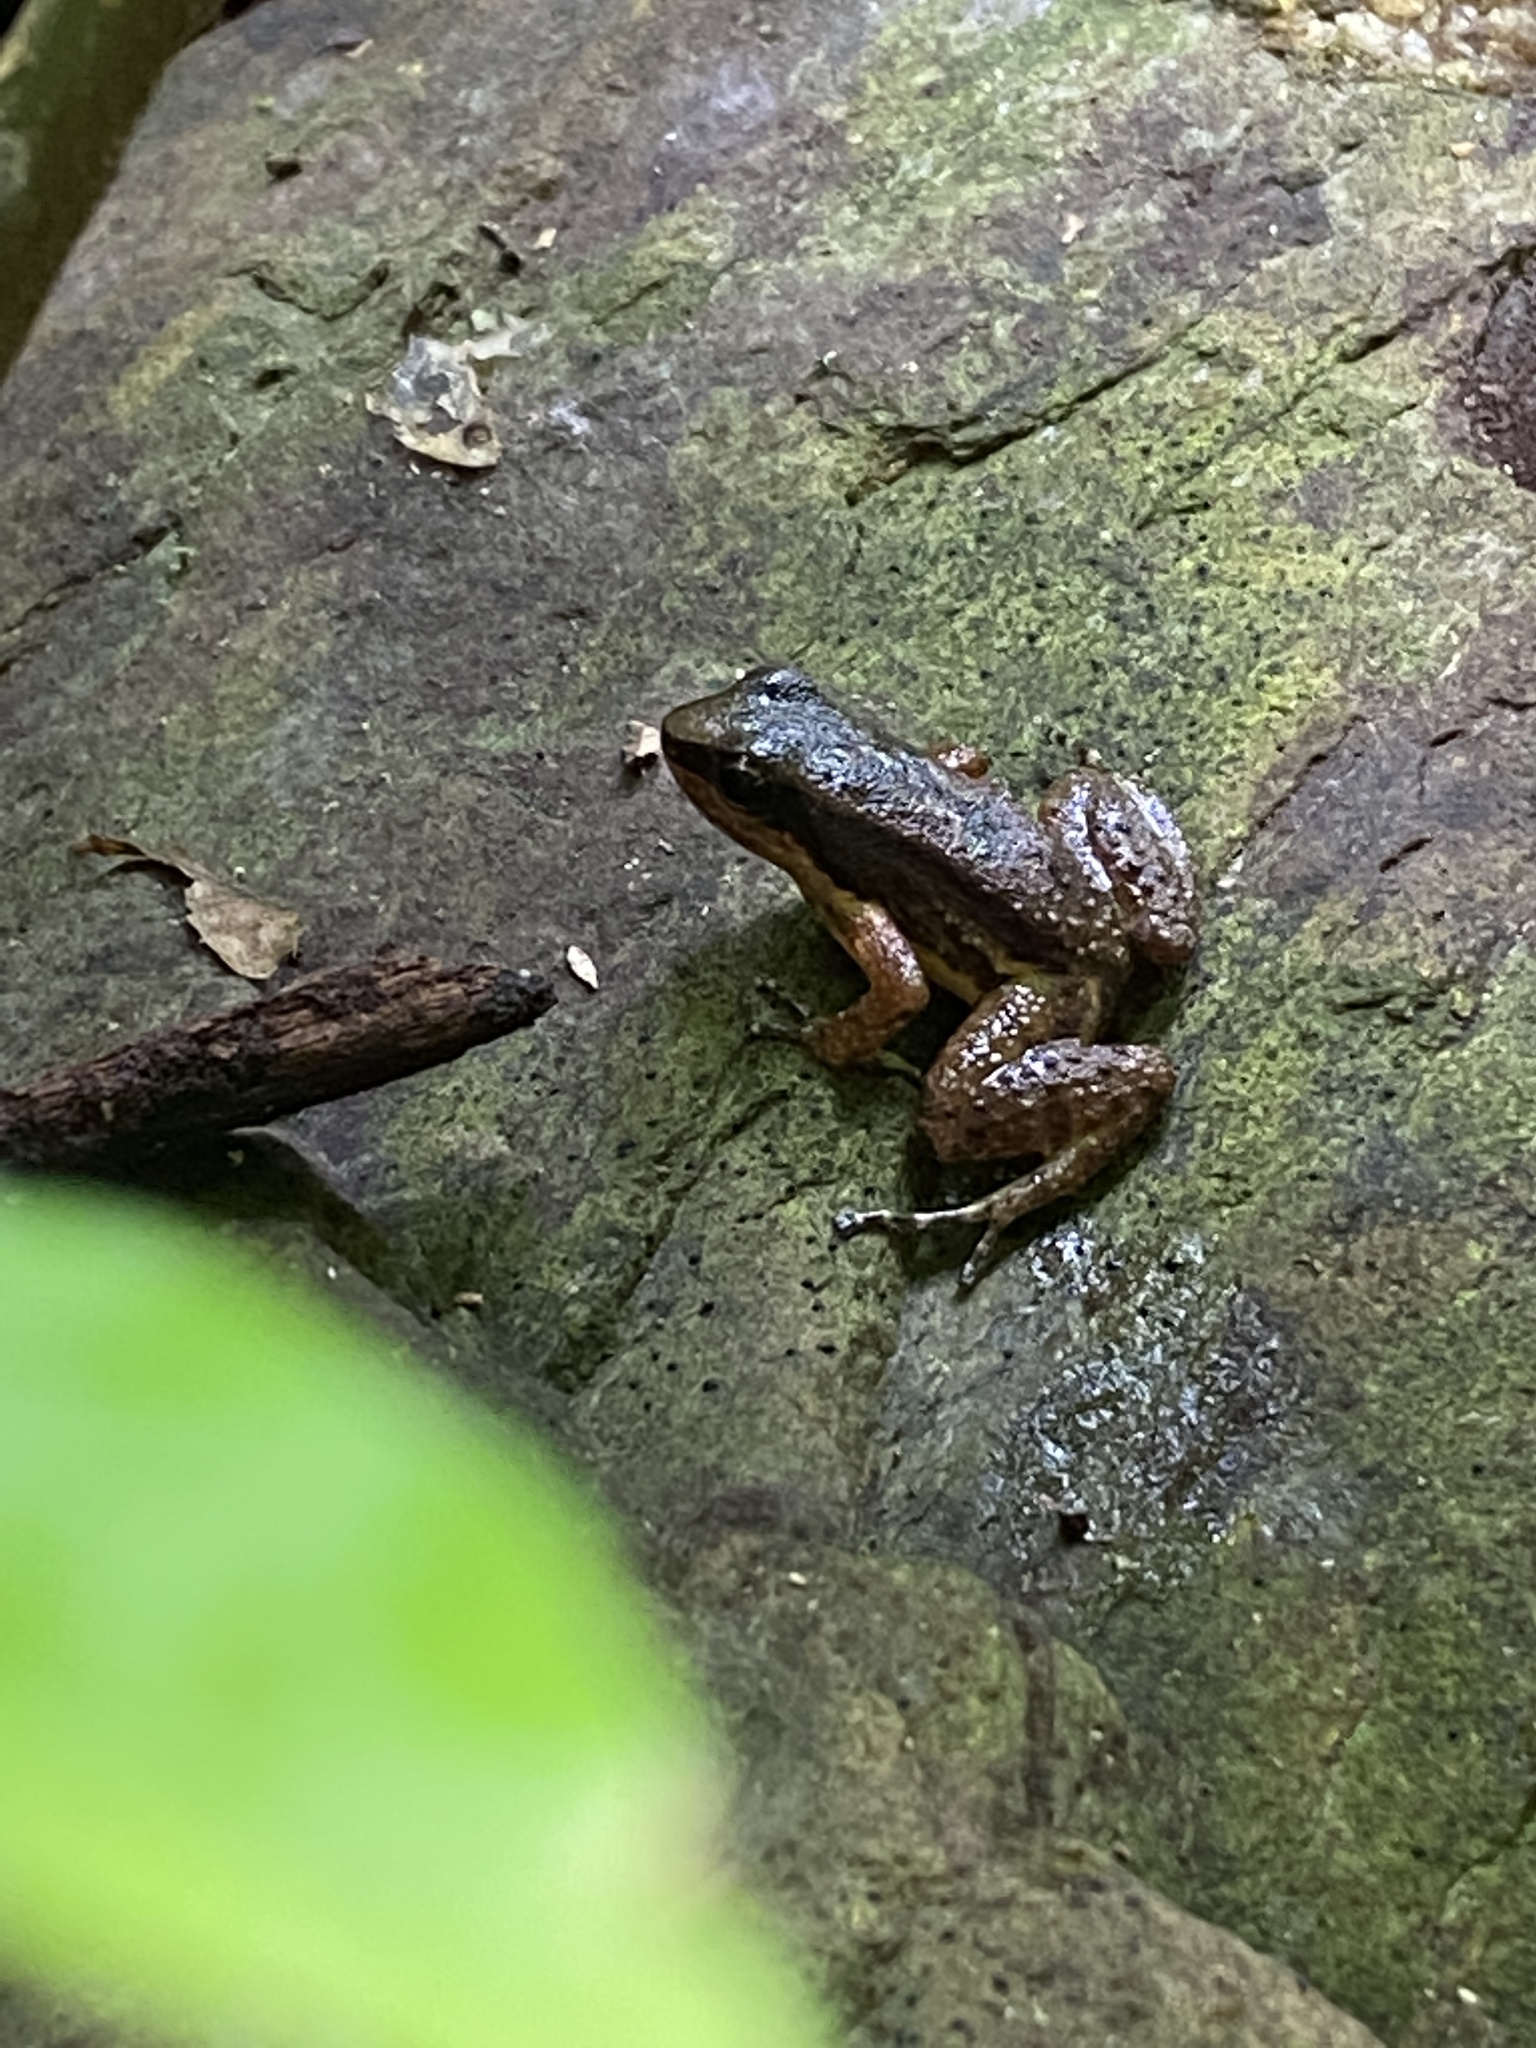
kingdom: Animalia
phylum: Chordata
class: Amphibia
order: Anura
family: Aromobatidae
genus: Mannophryne
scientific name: Mannophryne trinitatis
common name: Trinidad poison frog
